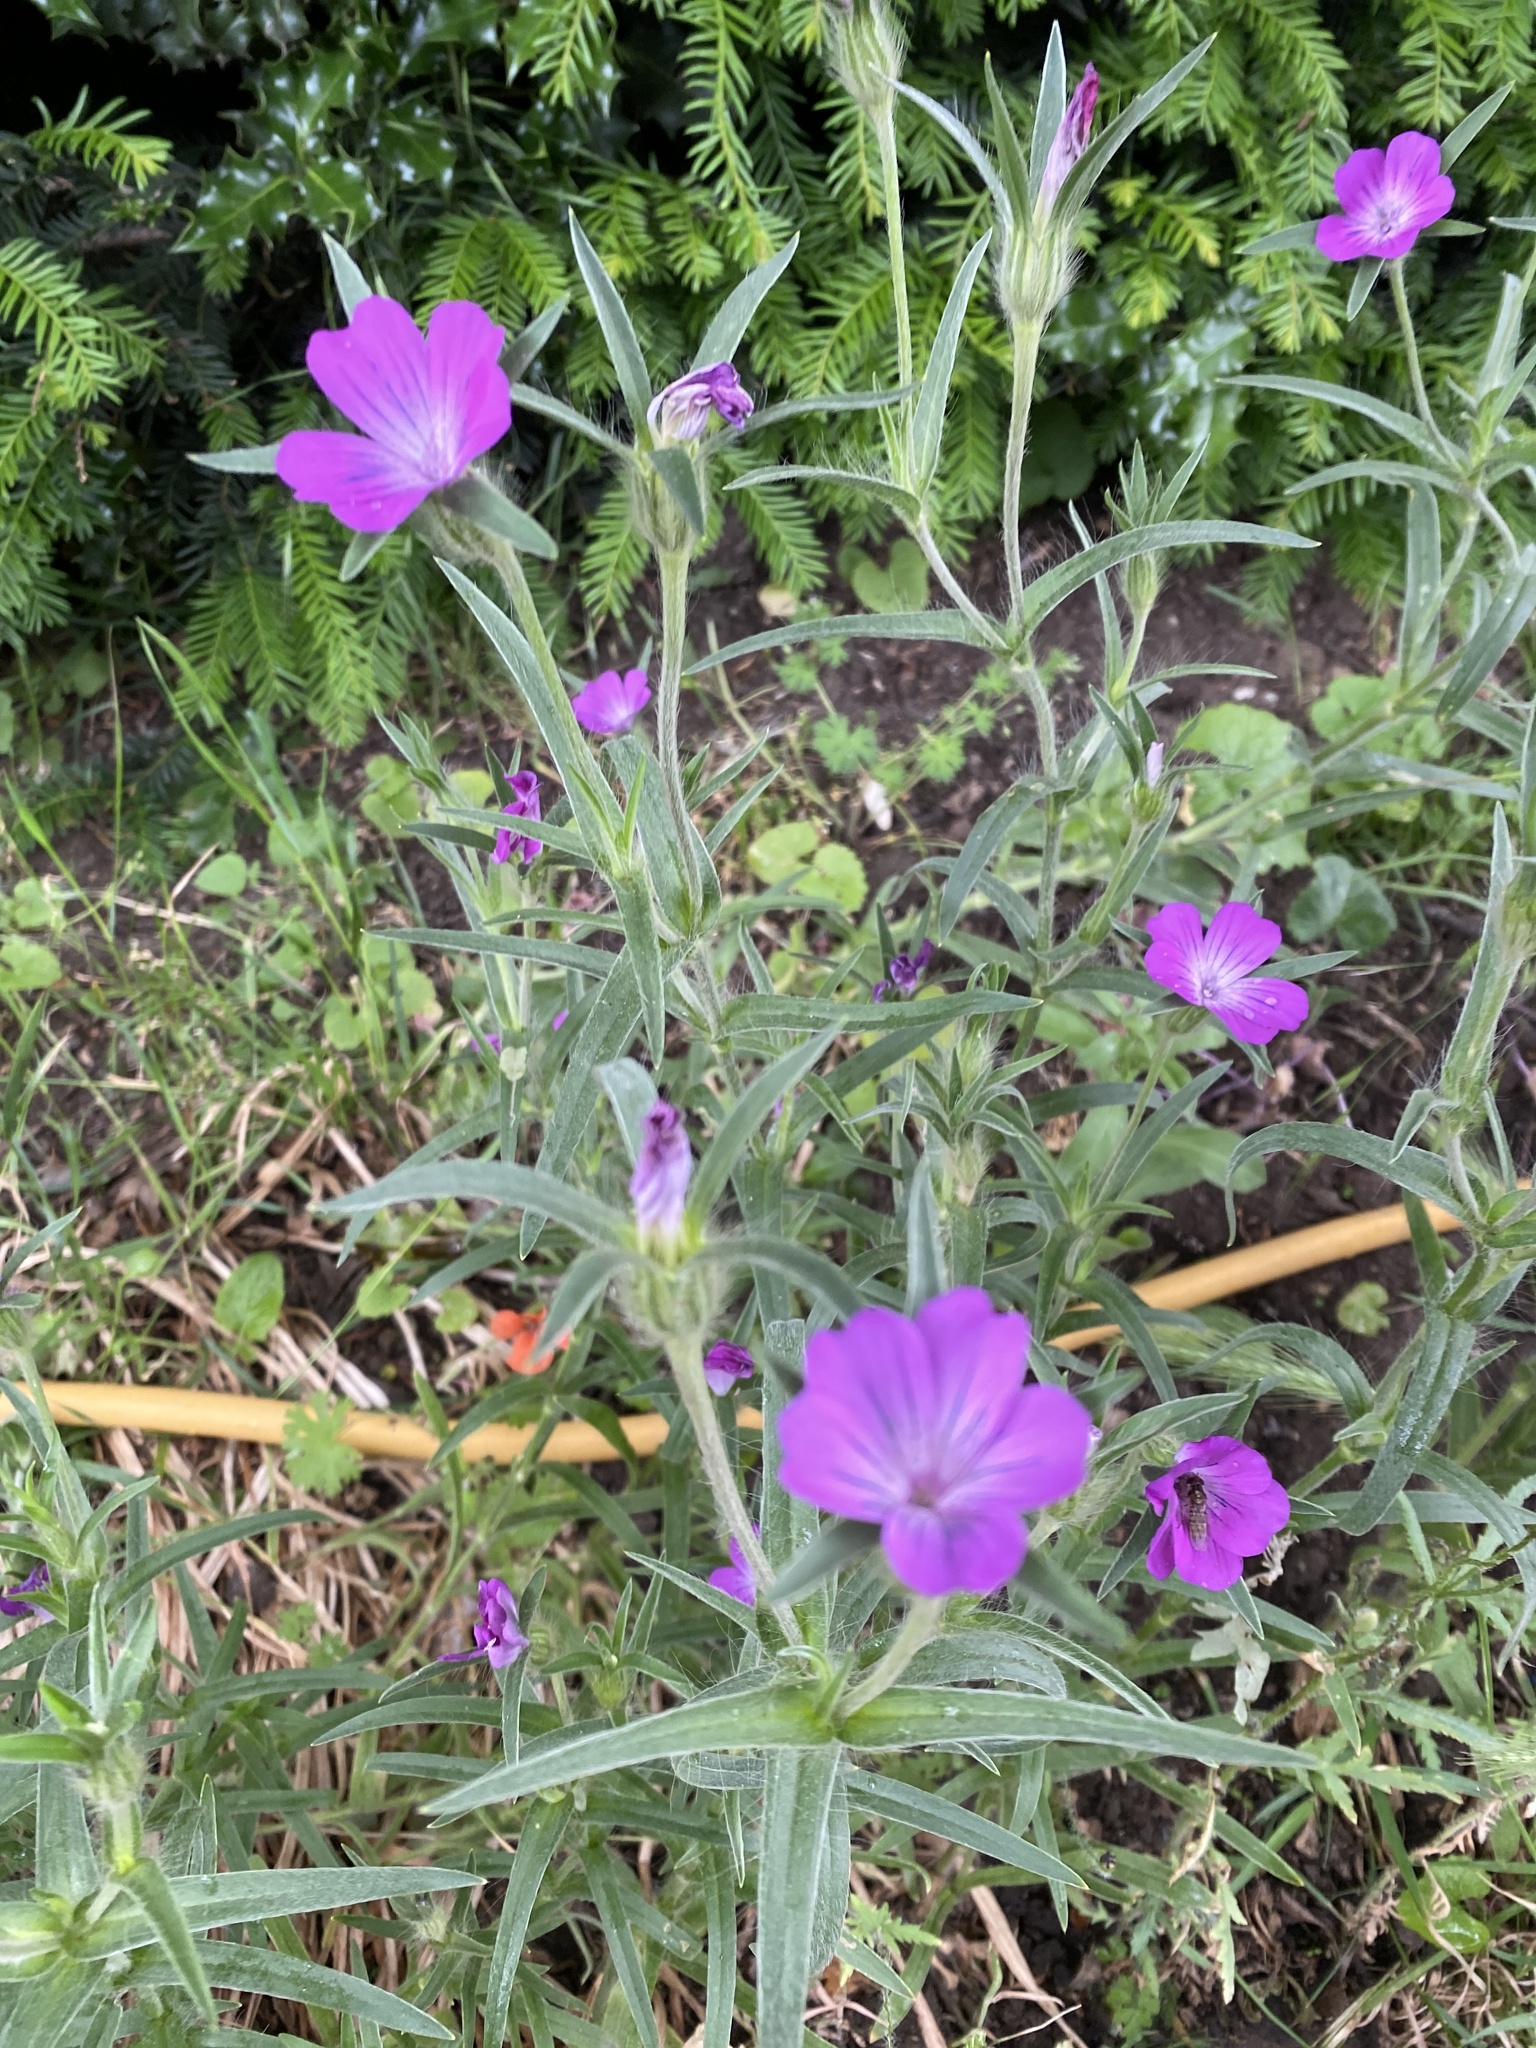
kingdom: Plantae
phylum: Tracheophyta
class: Magnoliopsida
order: Caryophyllales
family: Caryophyllaceae
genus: Agrostemma
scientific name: Agrostemma githago
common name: Common corncockle
